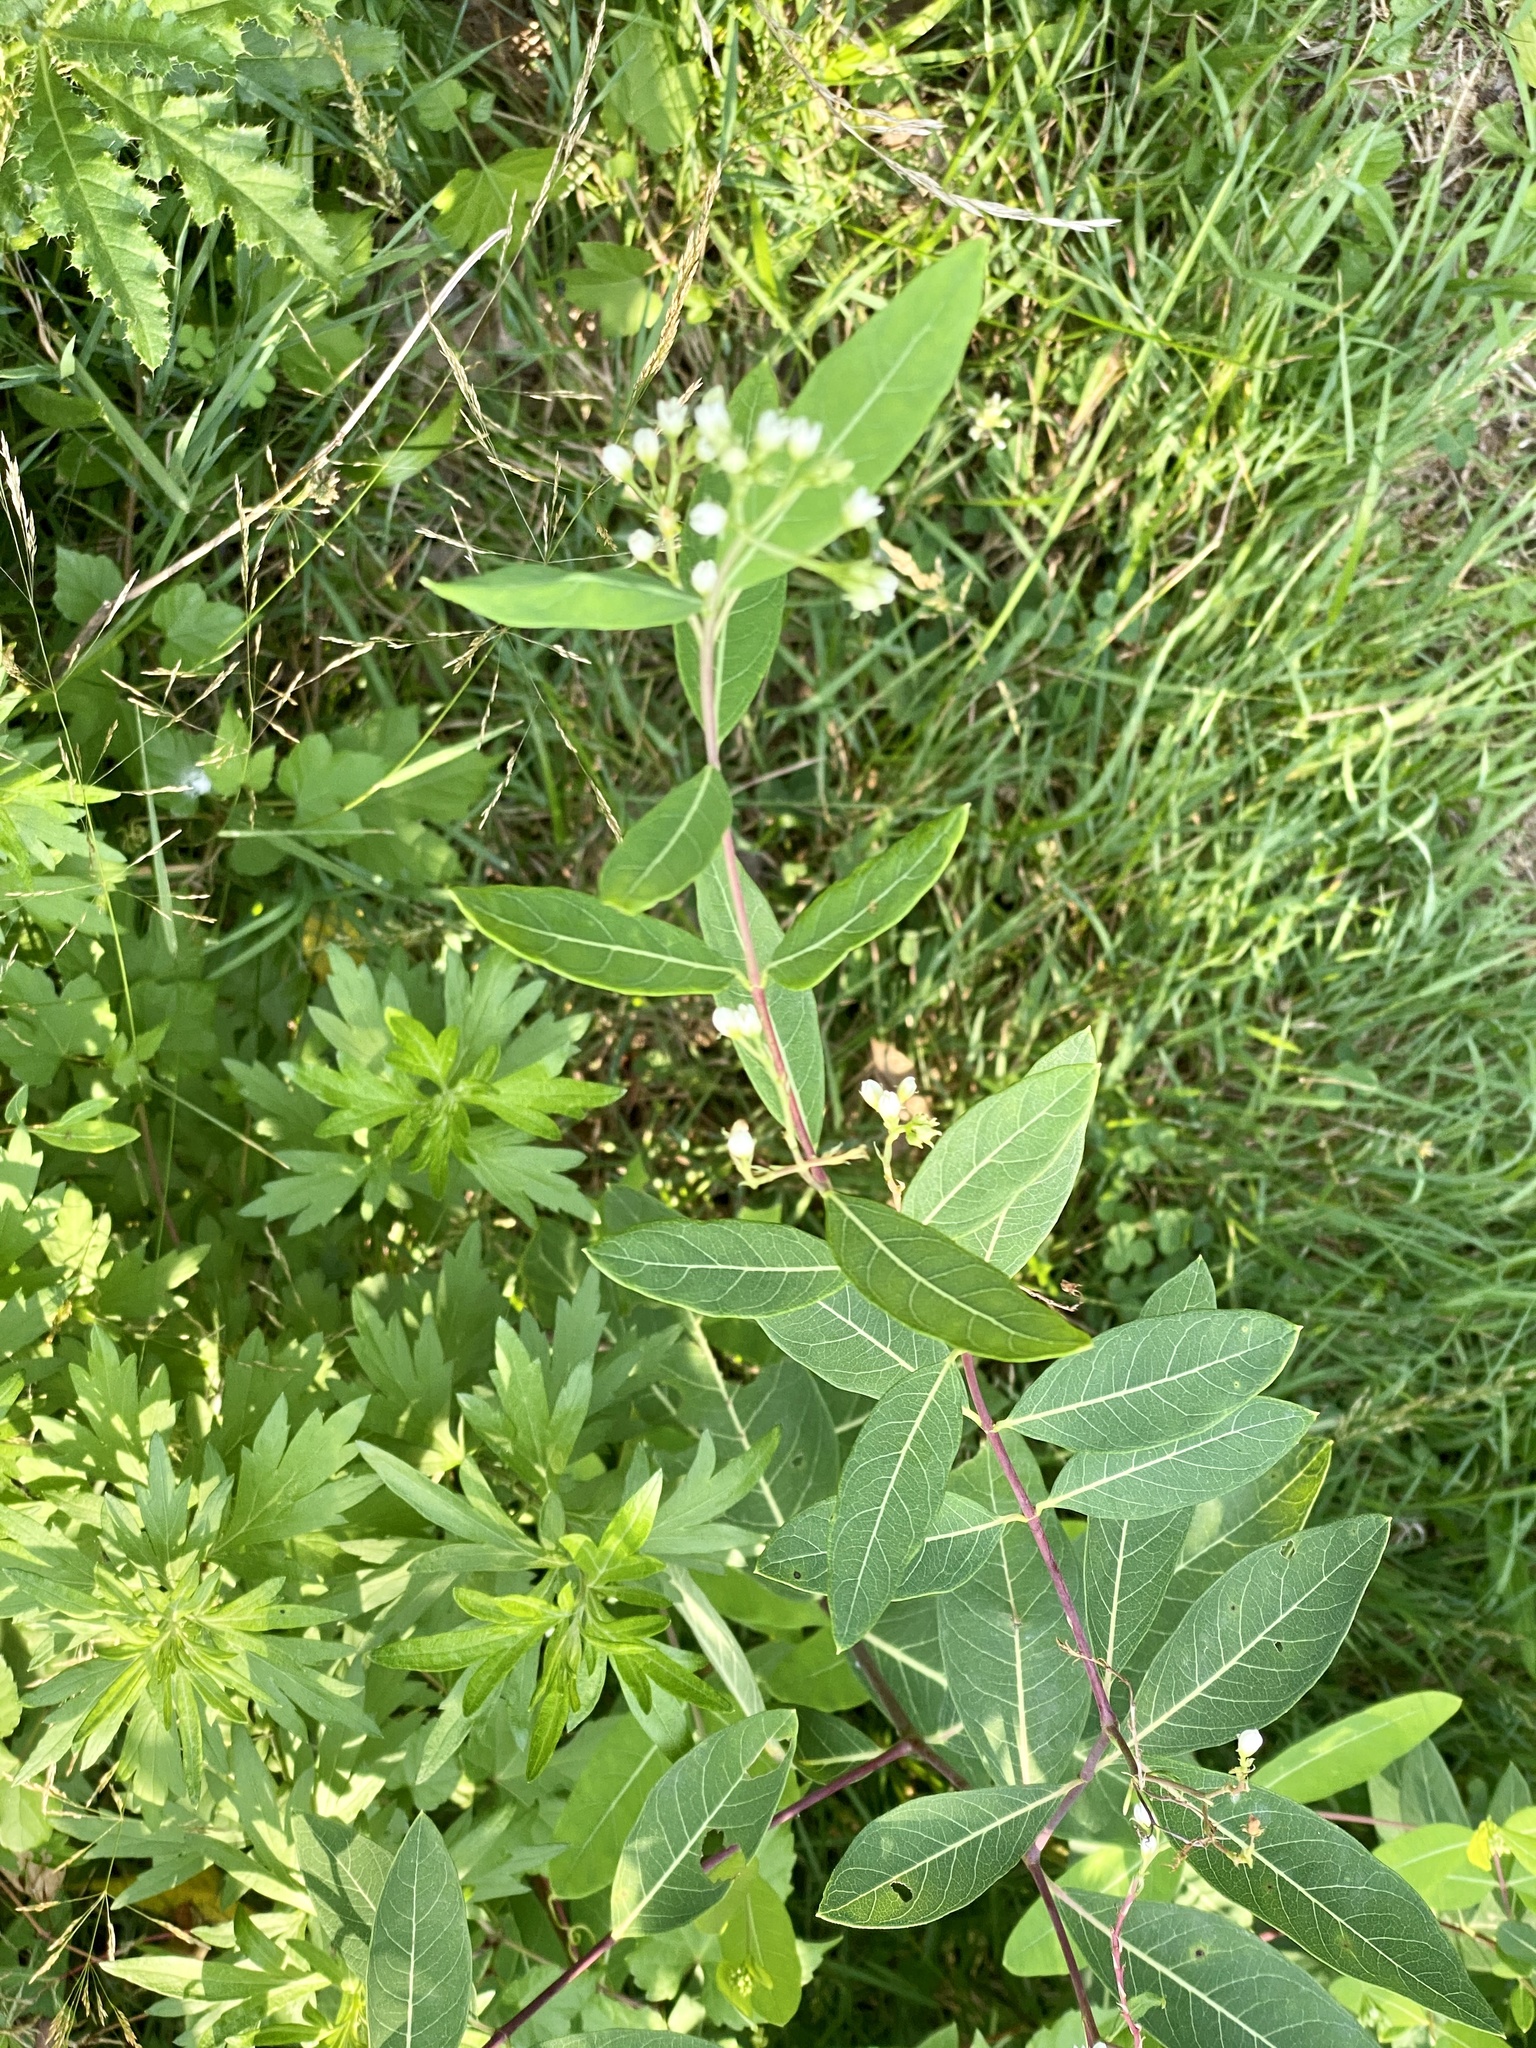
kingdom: Plantae
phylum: Tracheophyta
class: Magnoliopsida
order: Gentianales
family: Apocynaceae
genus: Apocynum
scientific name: Apocynum cannabinum
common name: Hemp dogbane
